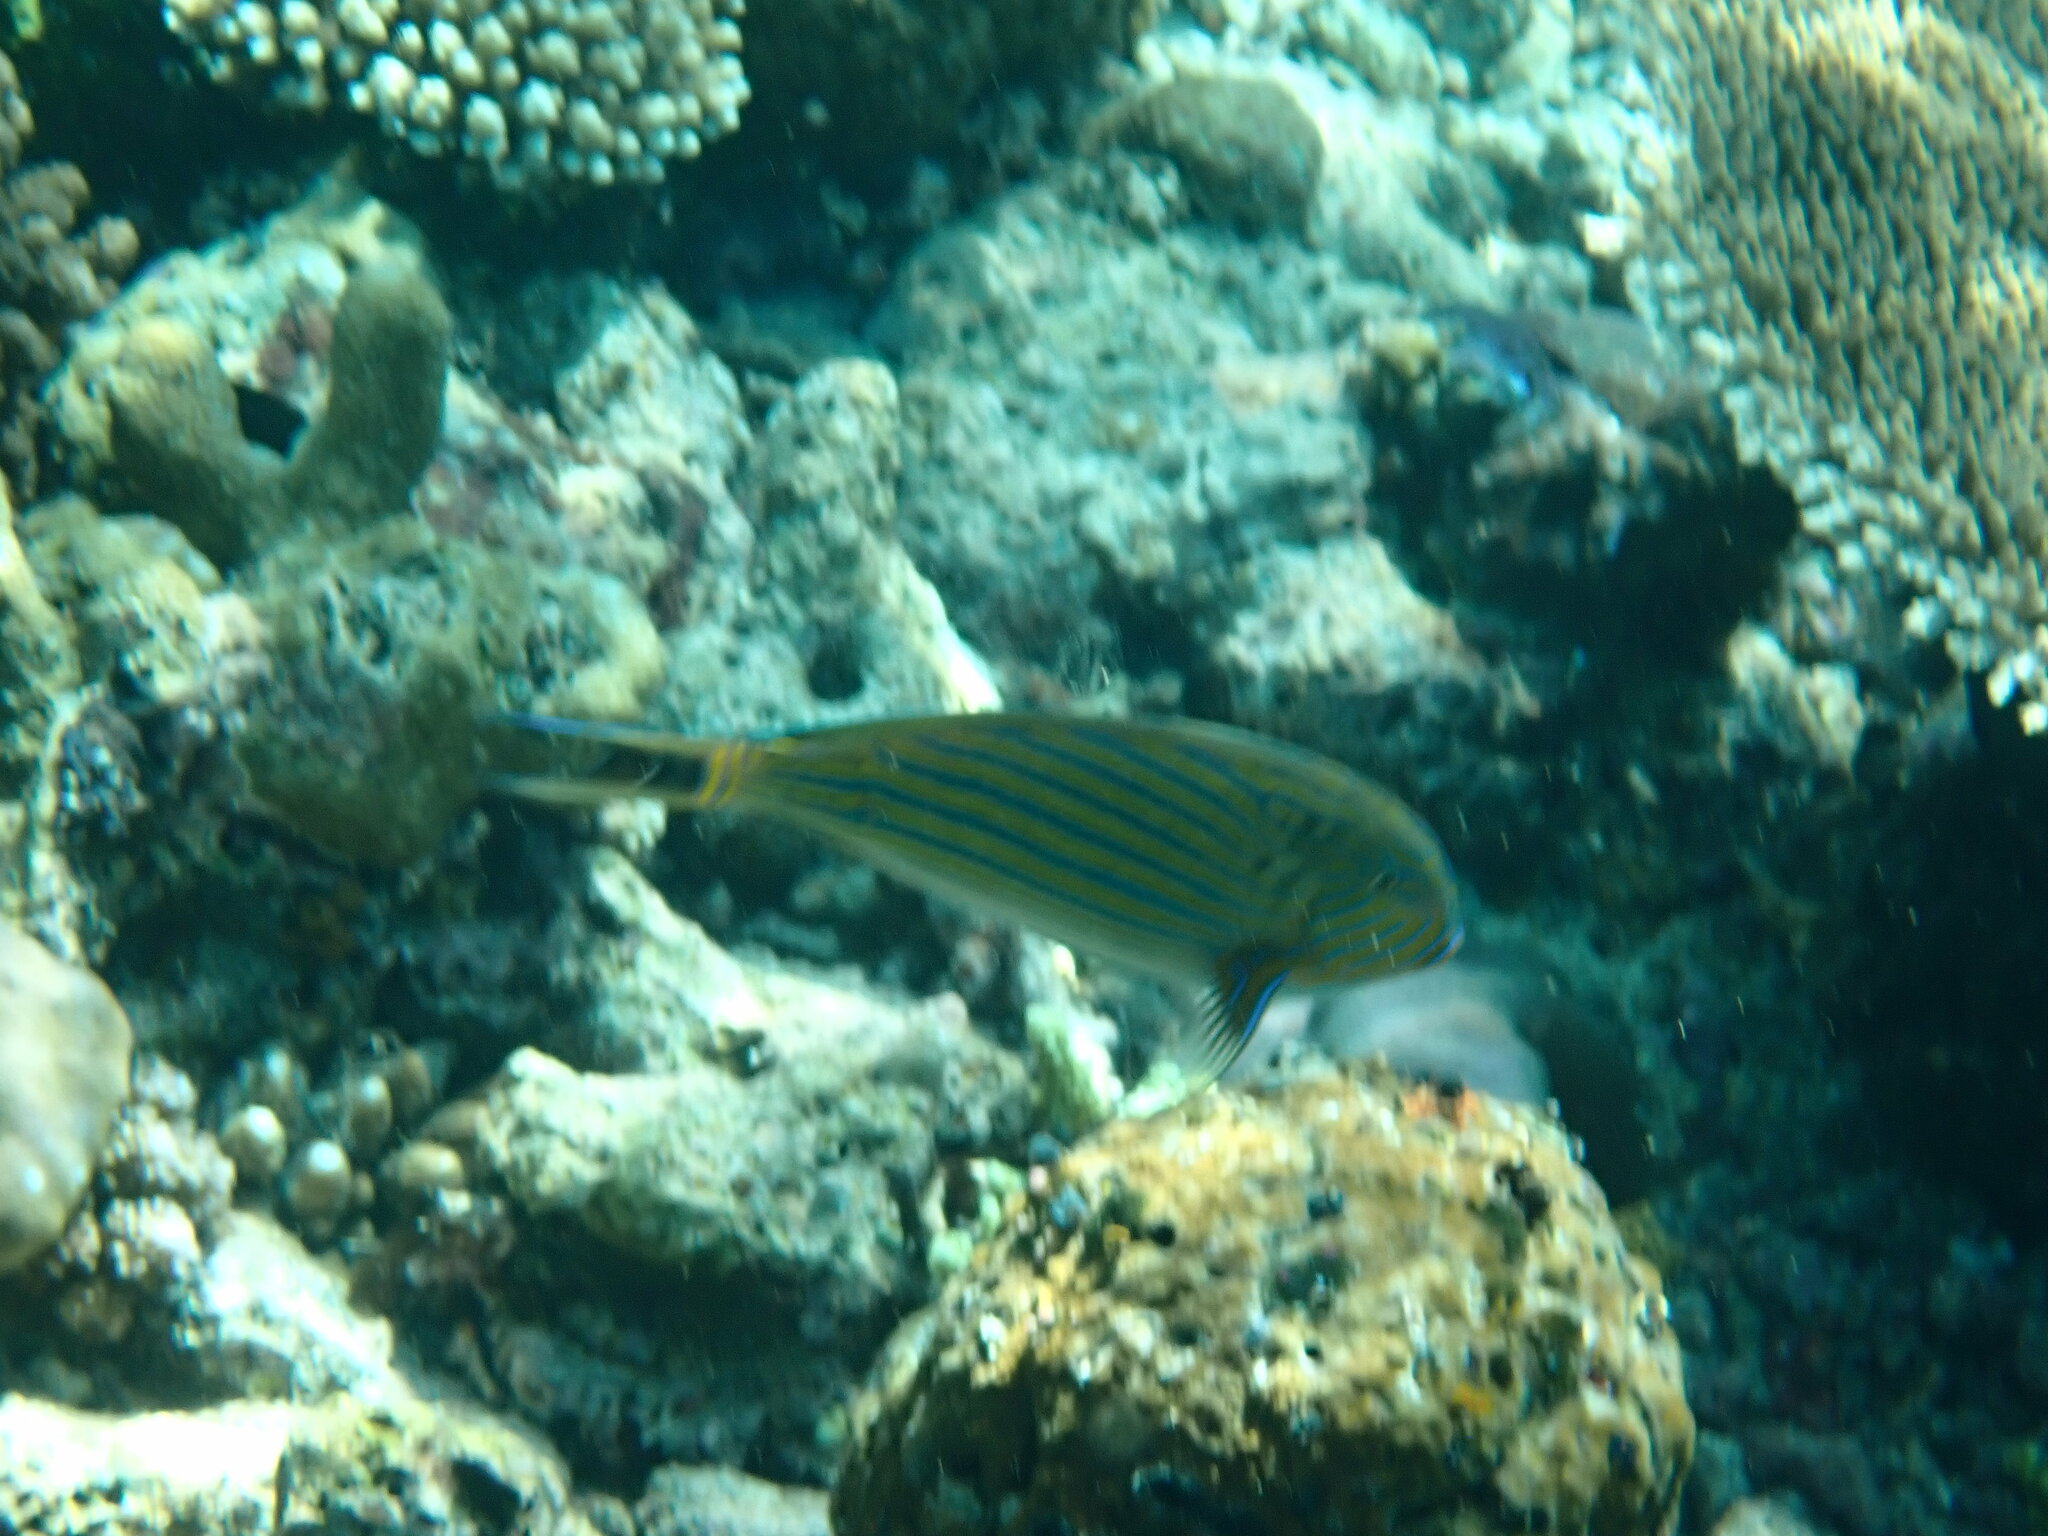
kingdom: Animalia
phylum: Chordata
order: Perciformes
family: Acanthuridae
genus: Acanthurus
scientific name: Acanthurus lineatus
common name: Striped surgeonfish
